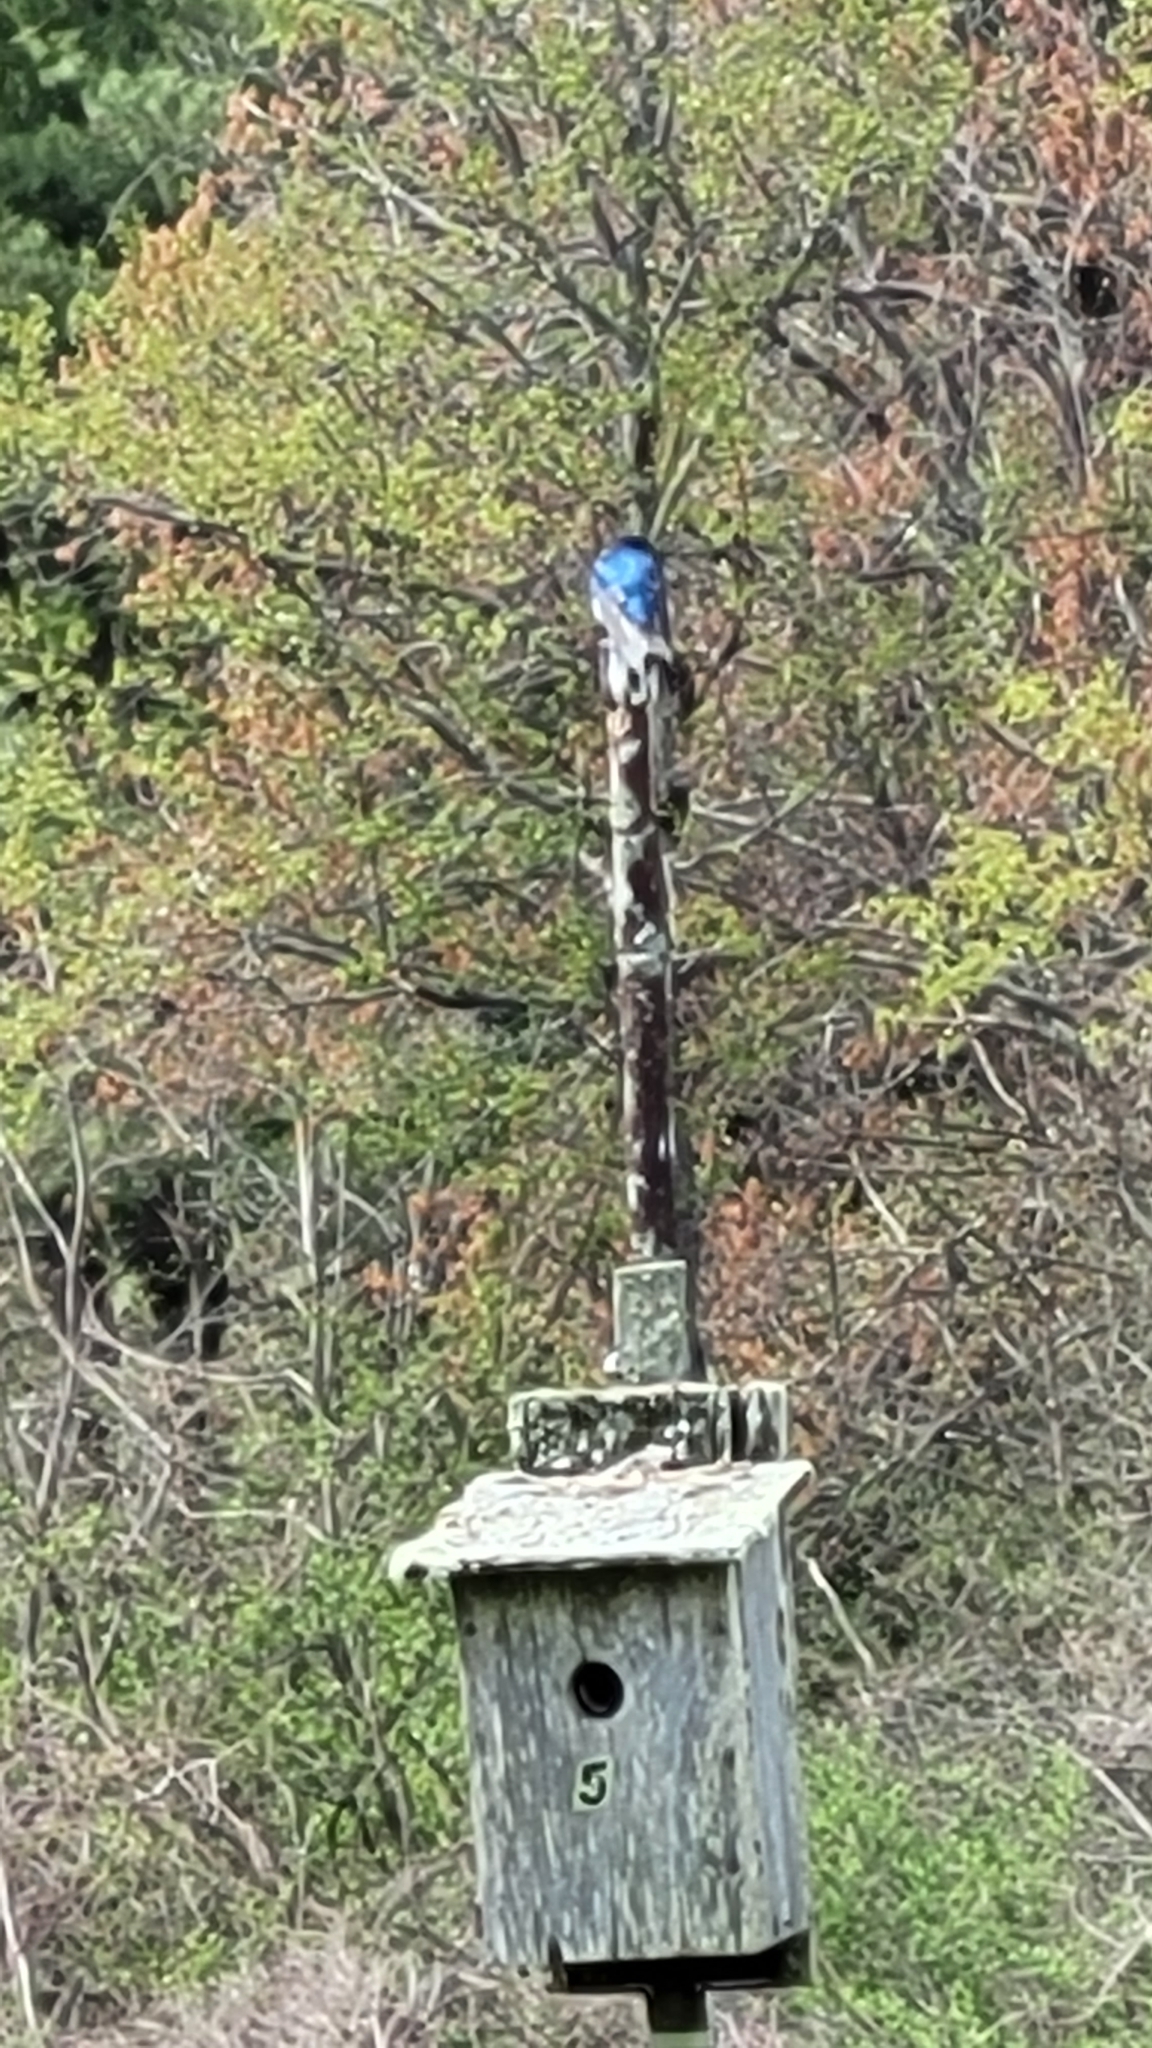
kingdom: Animalia
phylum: Chordata
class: Aves
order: Passeriformes
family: Hirundinidae
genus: Tachycineta
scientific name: Tachycineta bicolor
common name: Tree swallow
